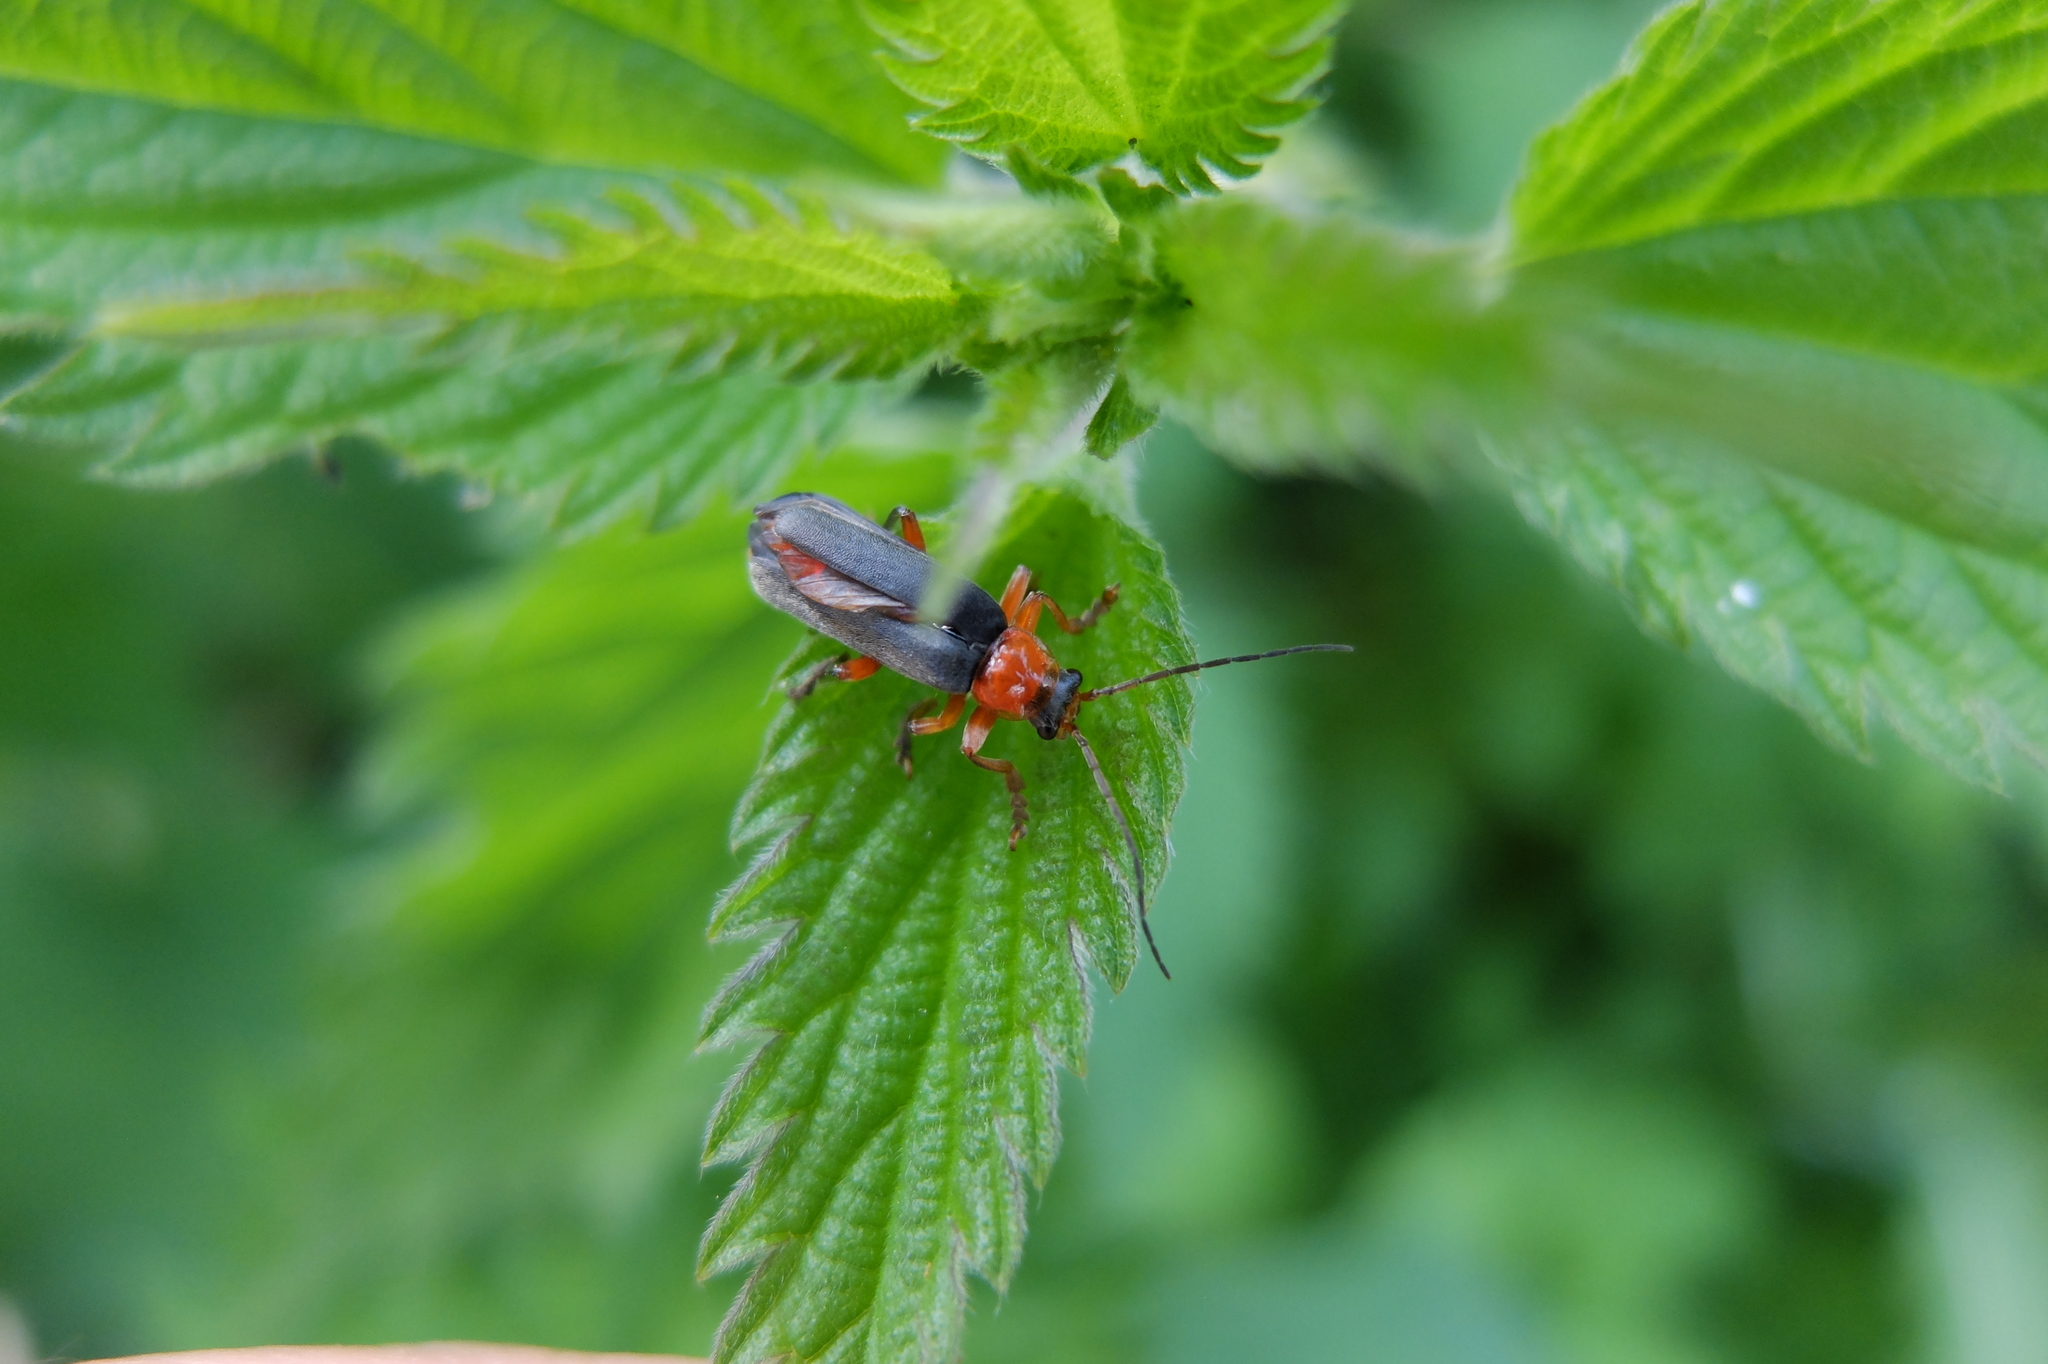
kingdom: Animalia
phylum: Arthropoda
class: Insecta
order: Coleoptera
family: Cantharidae
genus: Cantharis
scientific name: Cantharis pellucida
